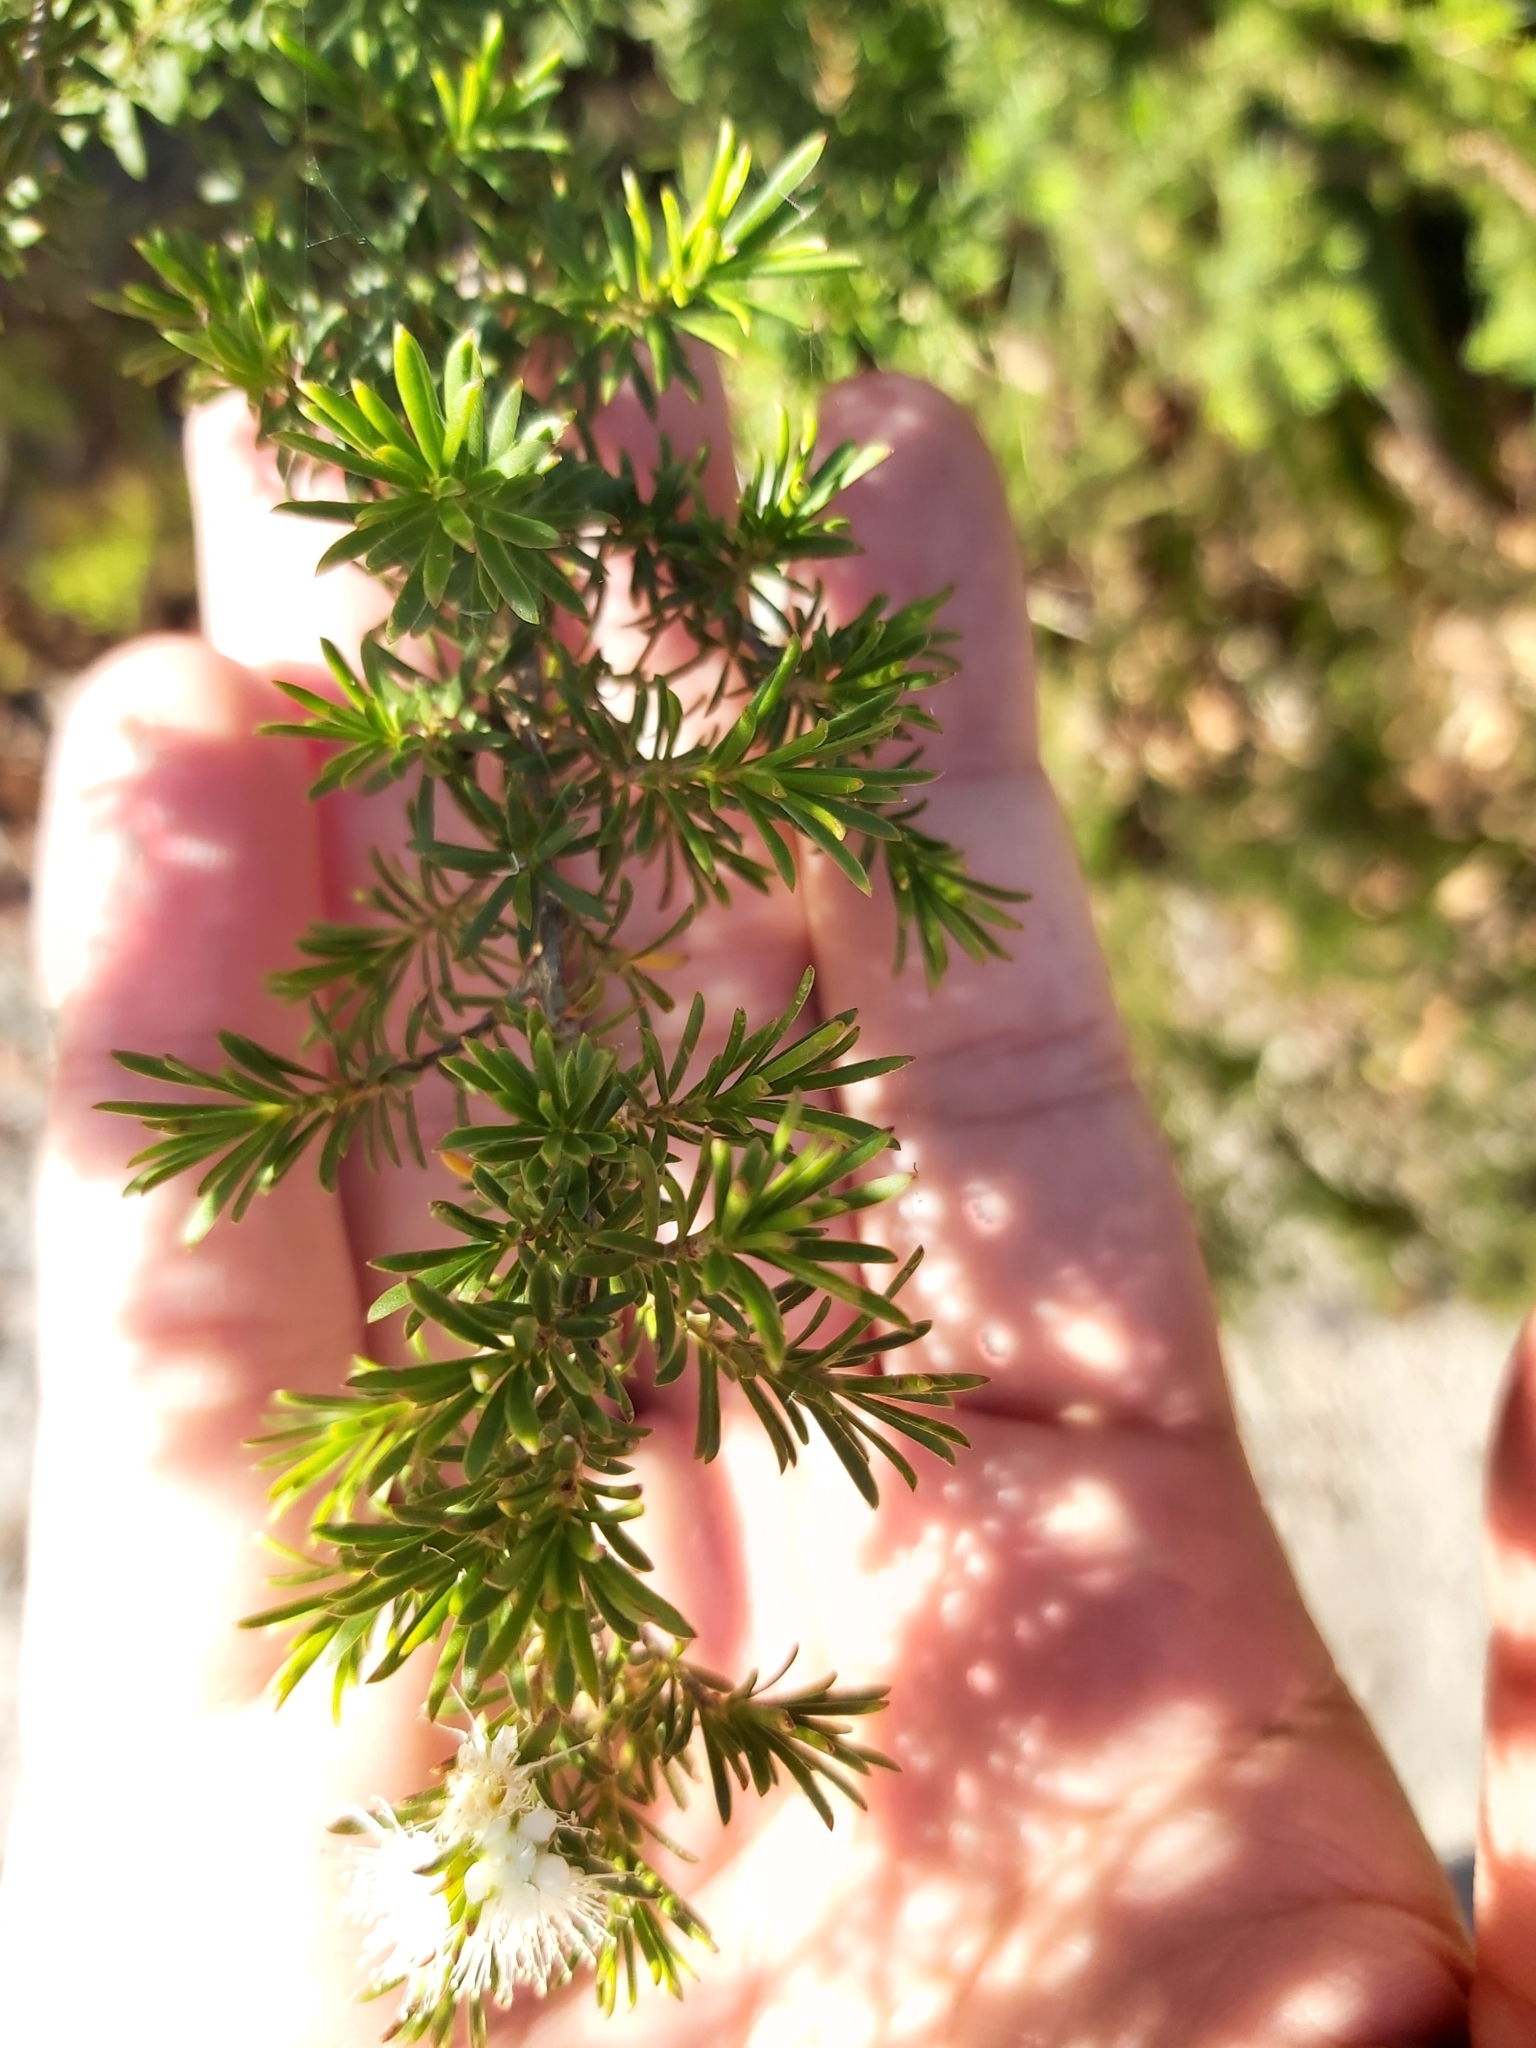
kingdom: Plantae
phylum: Tracheophyta
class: Magnoliopsida
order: Myrtales
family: Myrtaceae
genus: Kunzea
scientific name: Kunzea ambigua
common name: Tickbush
